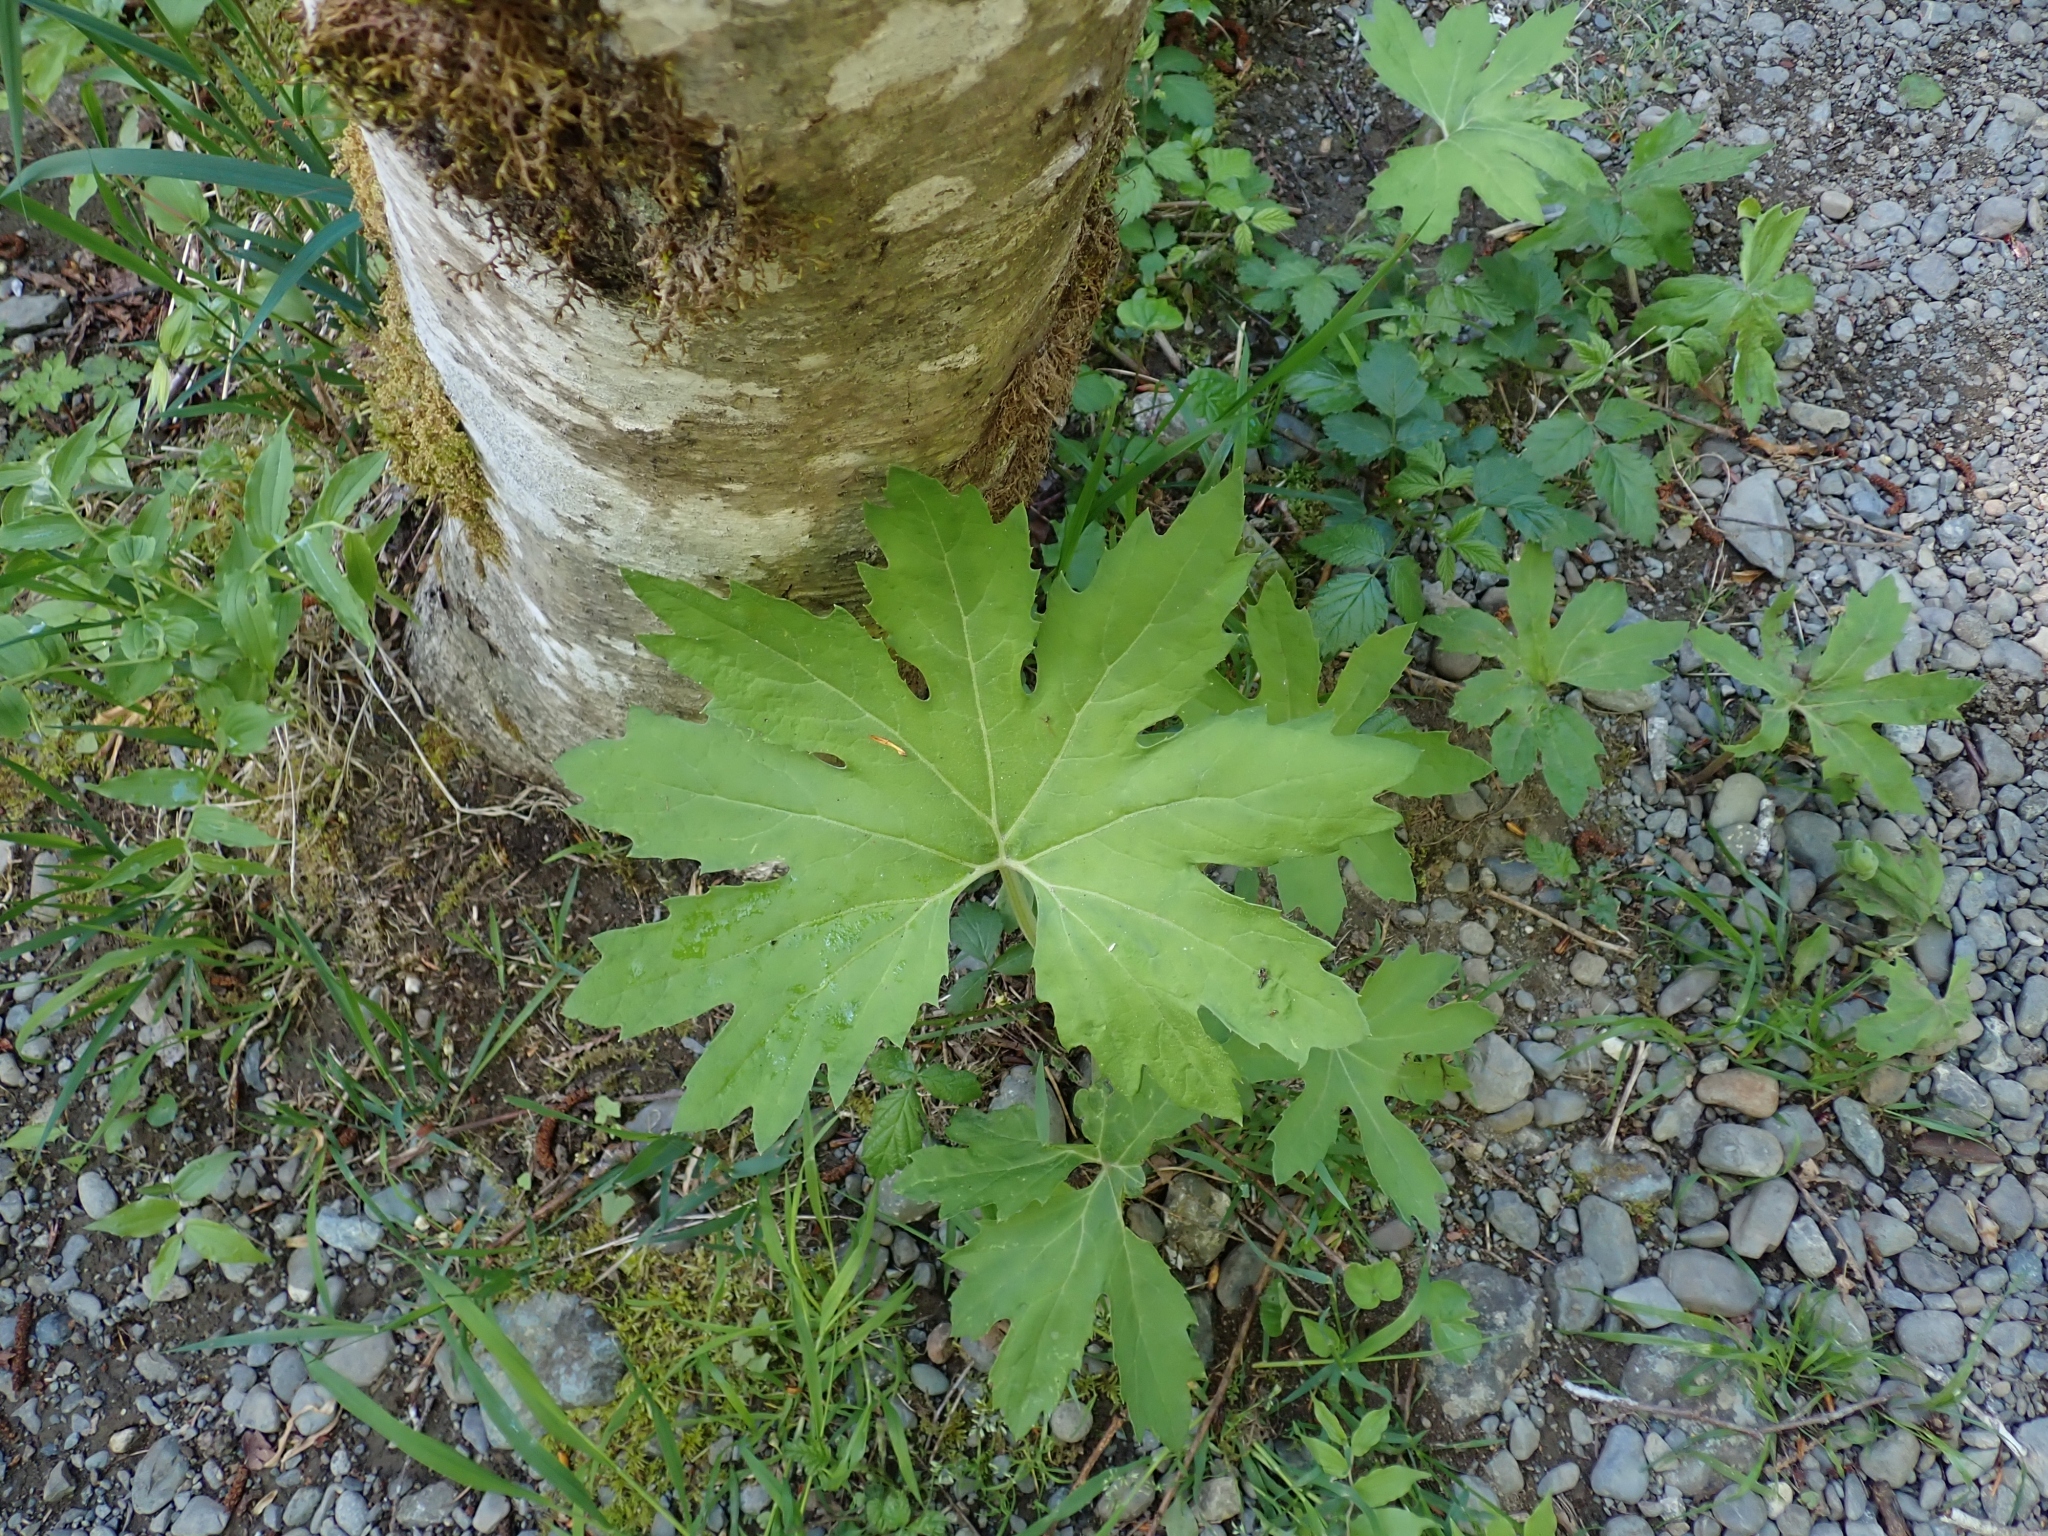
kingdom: Plantae
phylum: Tracheophyta
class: Magnoliopsida
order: Asterales
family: Asteraceae
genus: Petasites
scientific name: Petasites frigidus
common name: Arctic butterbur
